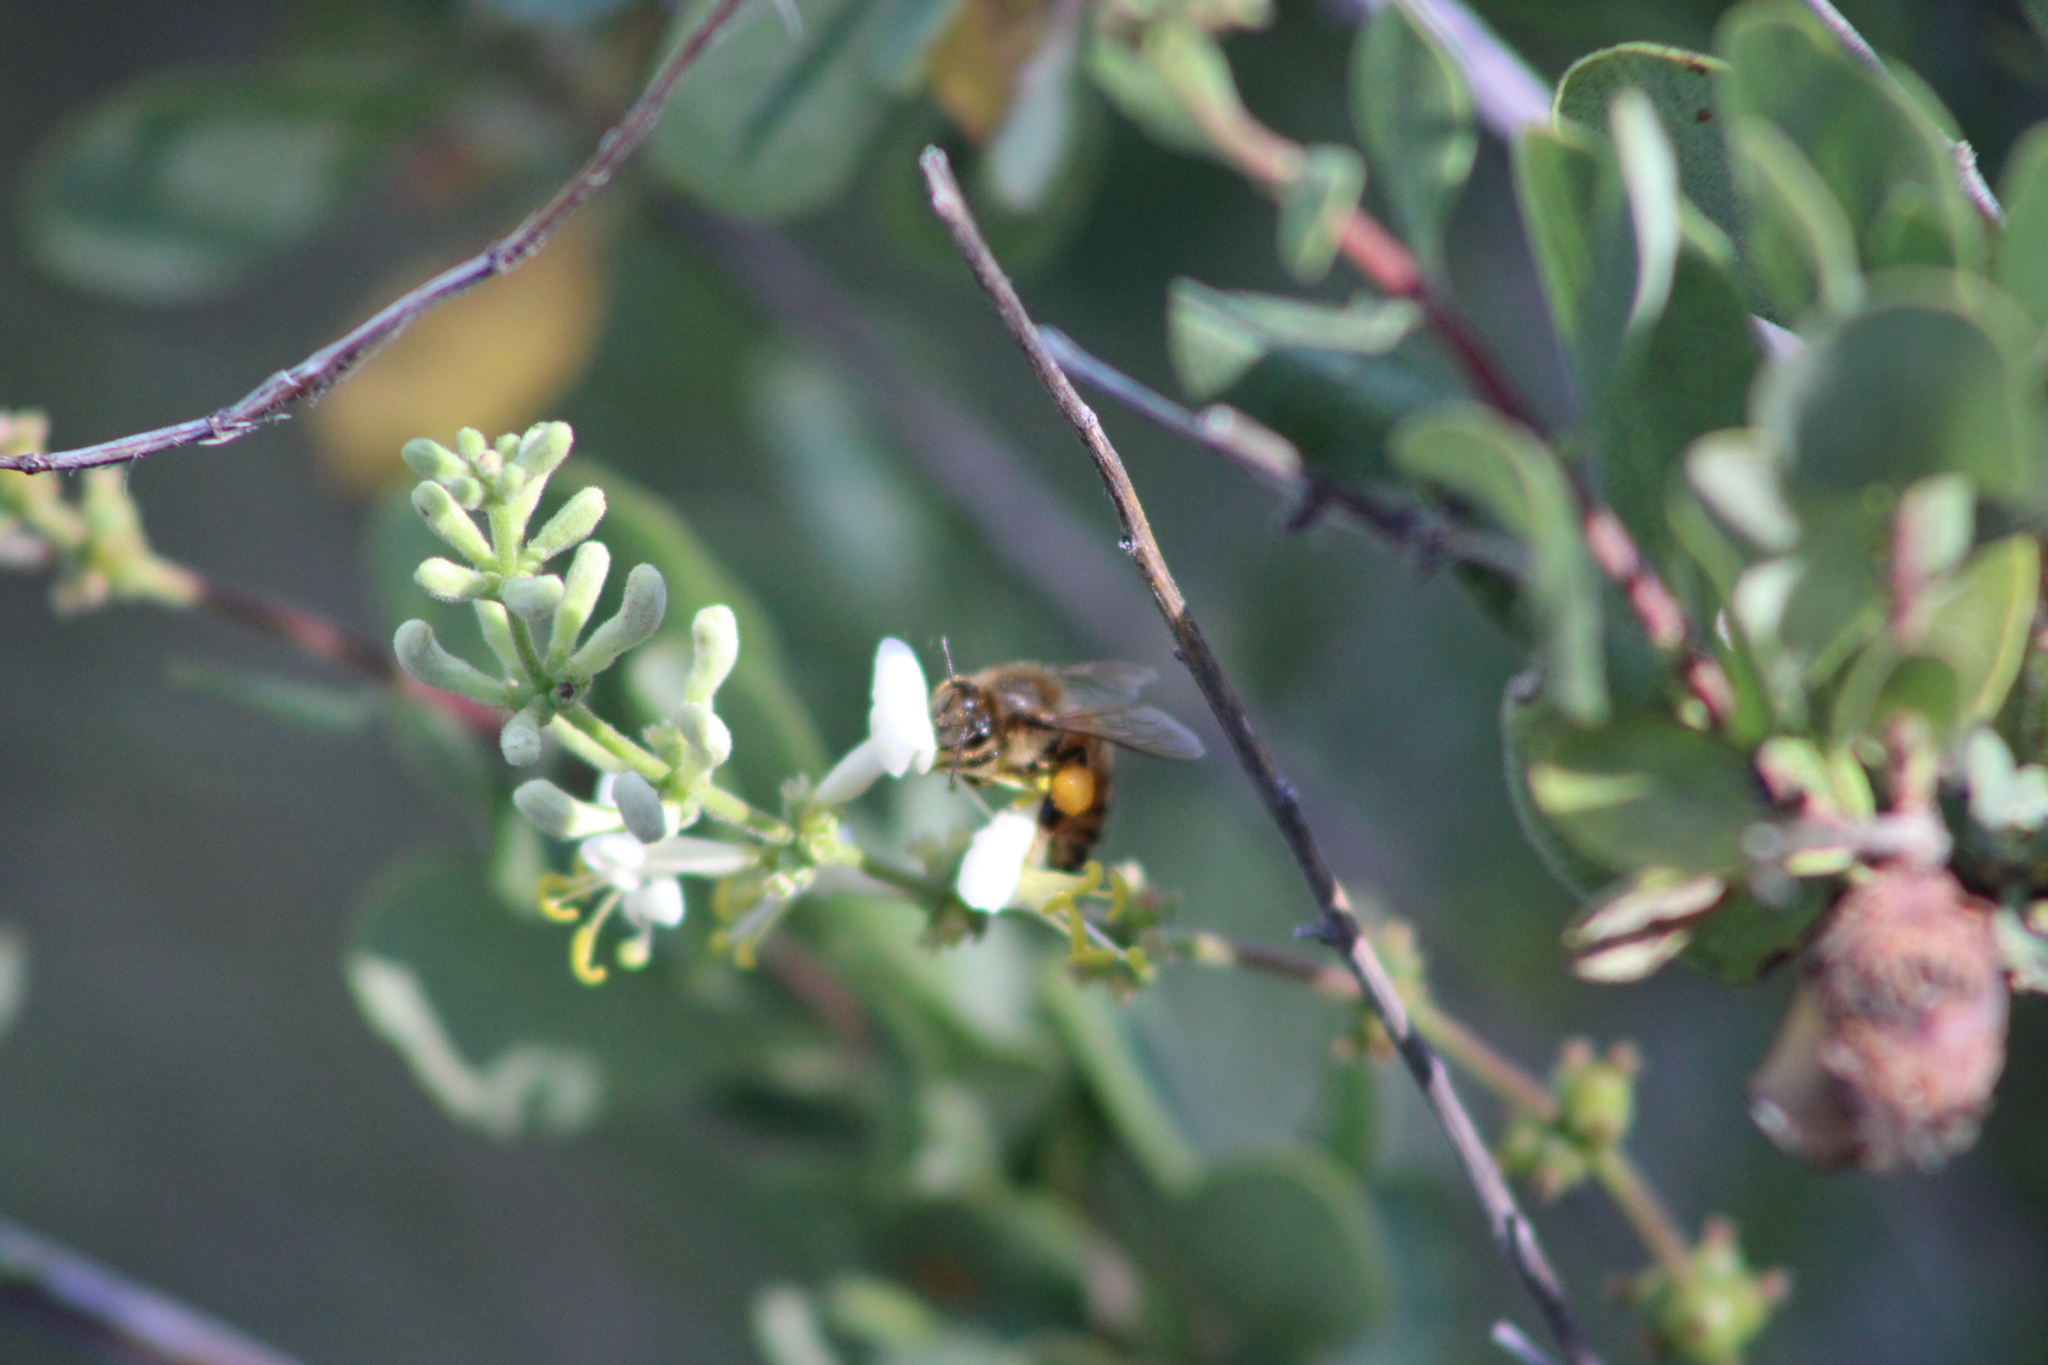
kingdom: Animalia
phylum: Arthropoda
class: Insecta
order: Hymenoptera
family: Apidae
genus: Apis
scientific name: Apis mellifera
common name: Honey bee
